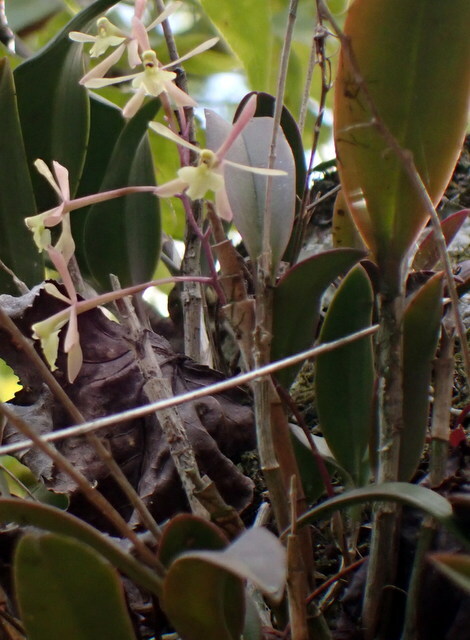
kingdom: Plantae
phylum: Tracheophyta
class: Liliopsida
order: Asparagales
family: Orchidaceae
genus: Epidendrum
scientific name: Epidendrum conopseum
